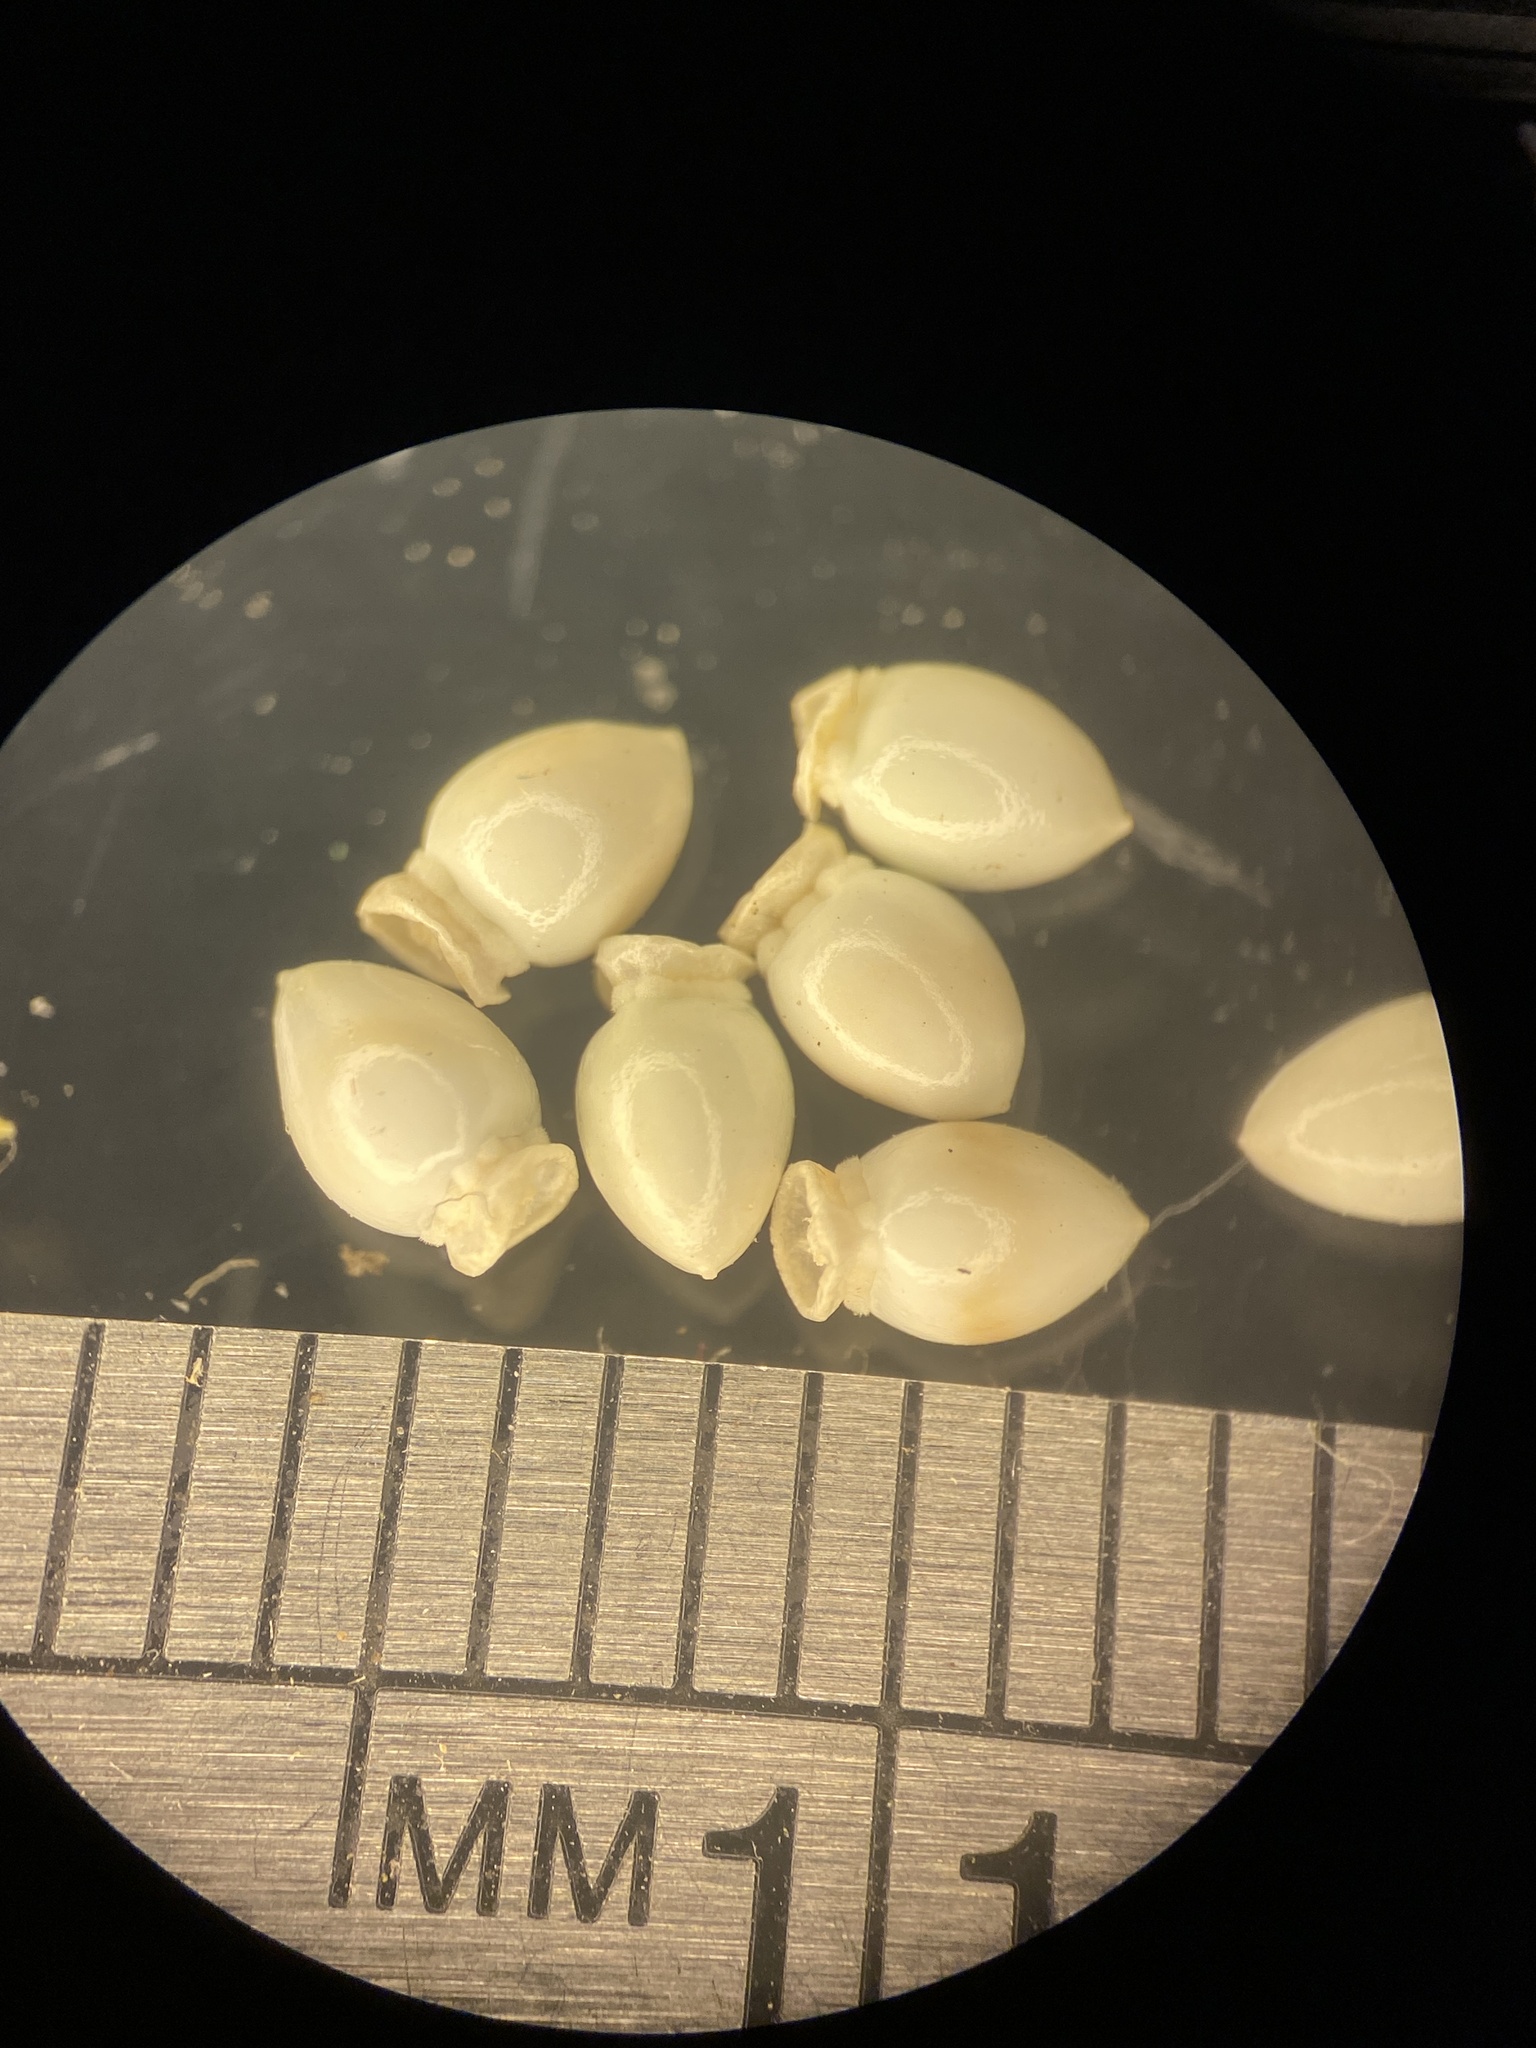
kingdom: Plantae
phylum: Tracheophyta
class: Liliopsida
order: Poales
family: Cyperaceae
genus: Scleria
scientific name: Scleria oligantha
